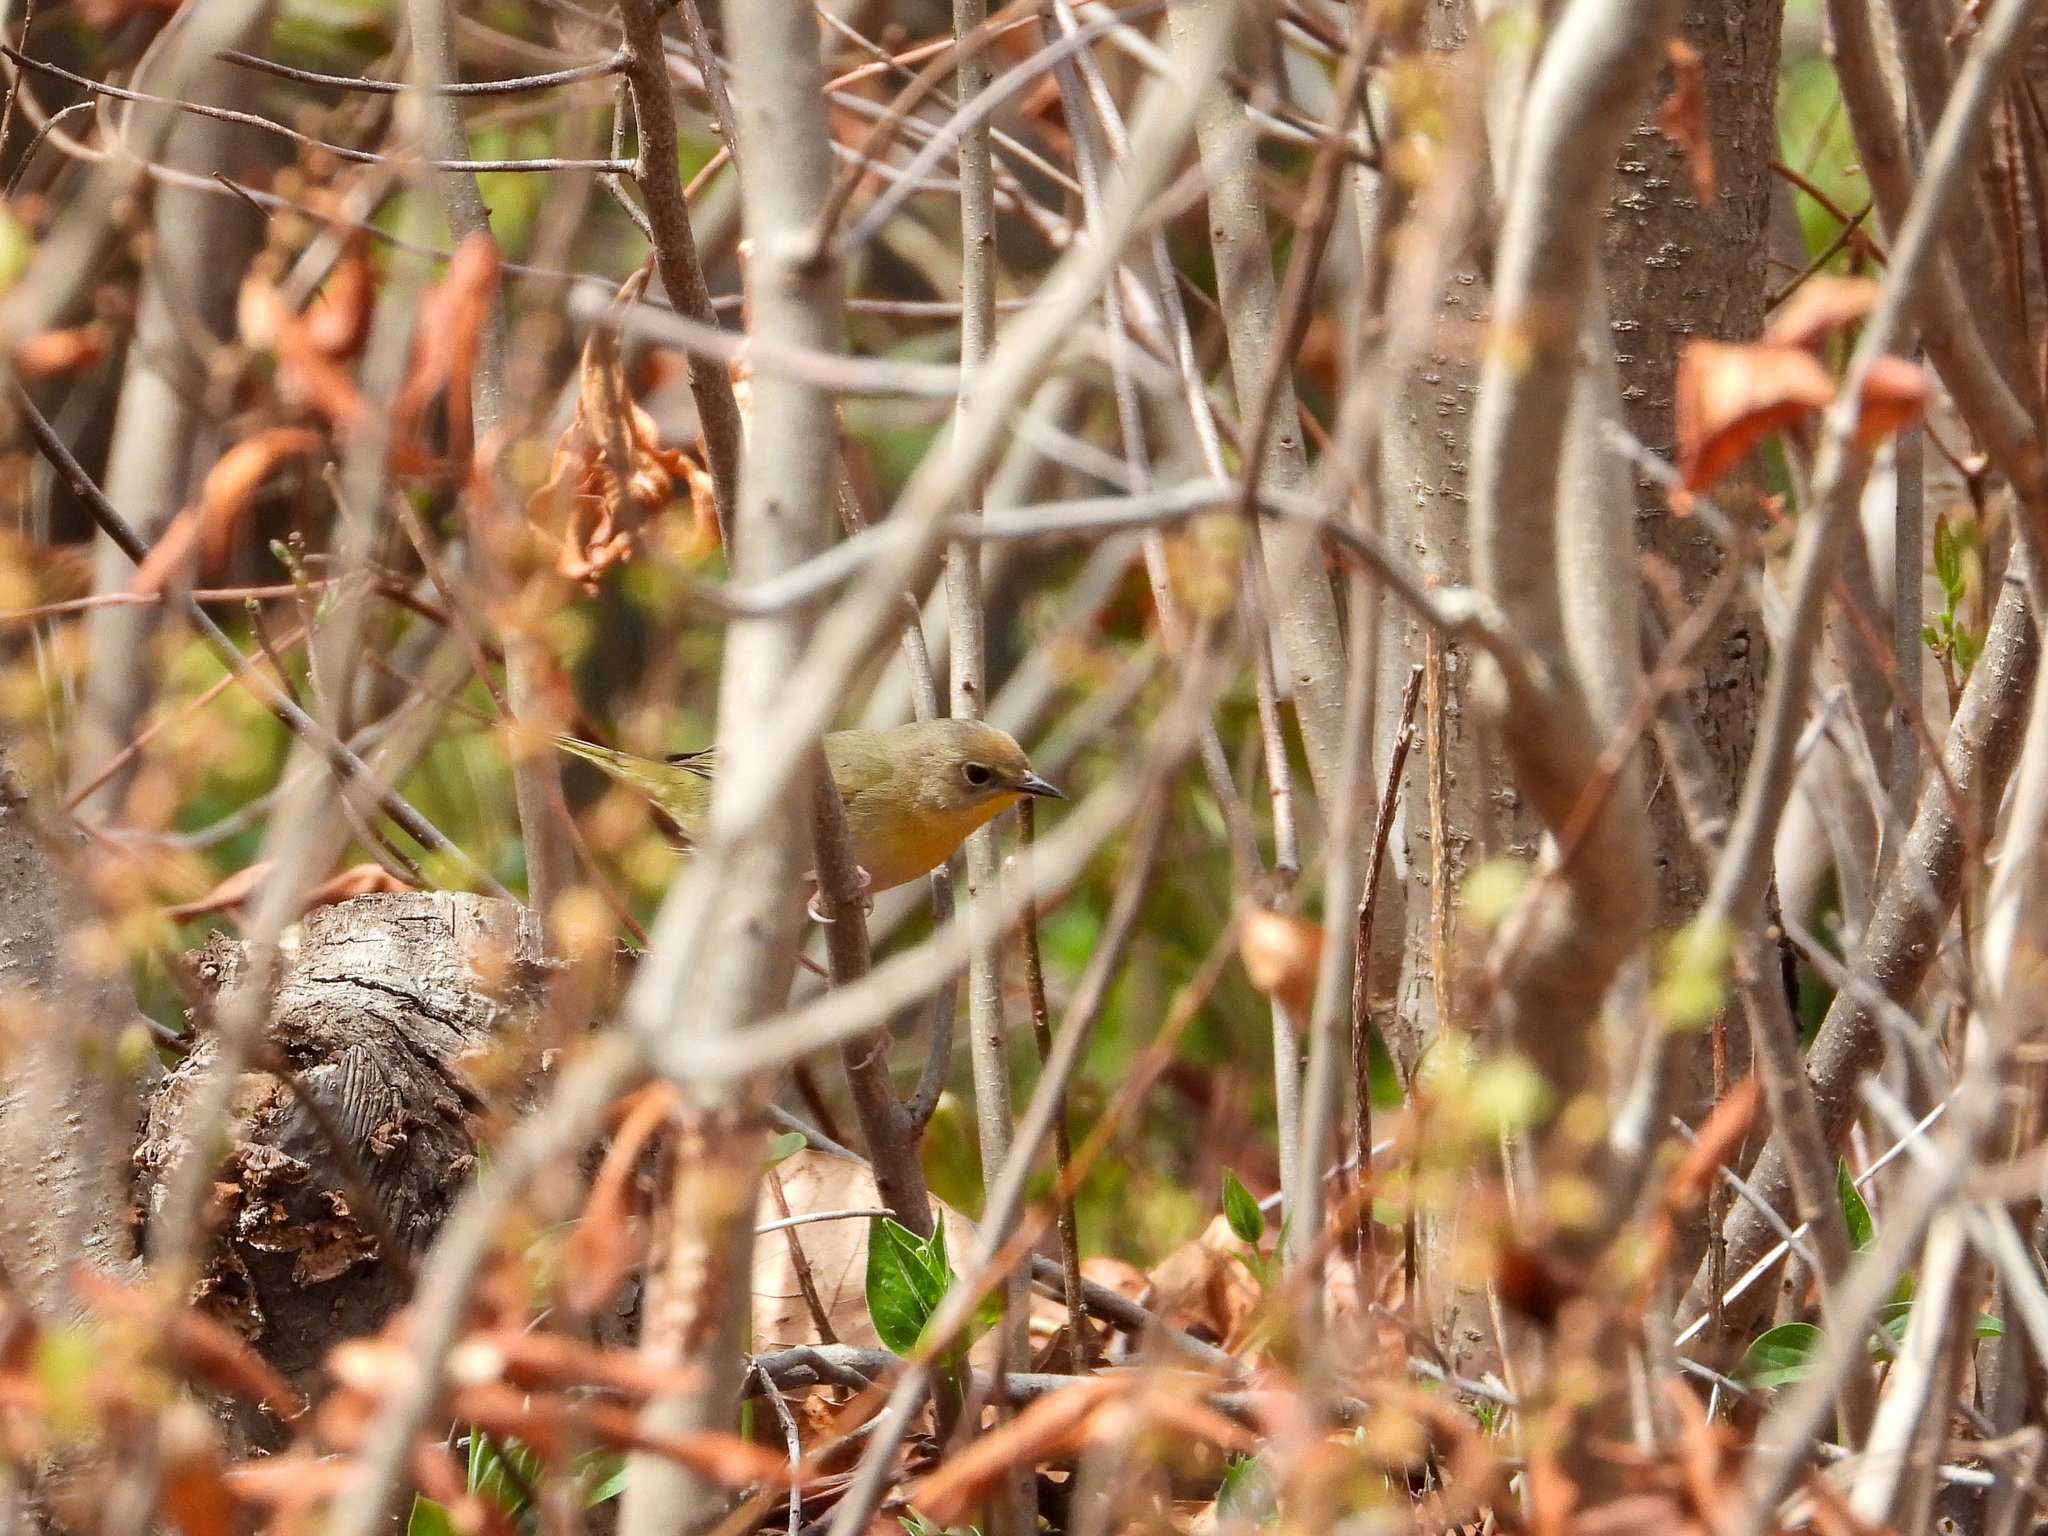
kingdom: Animalia
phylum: Chordata
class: Aves
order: Passeriformes
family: Parulidae
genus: Geothlypis
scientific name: Geothlypis trichas
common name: Common yellowthroat
